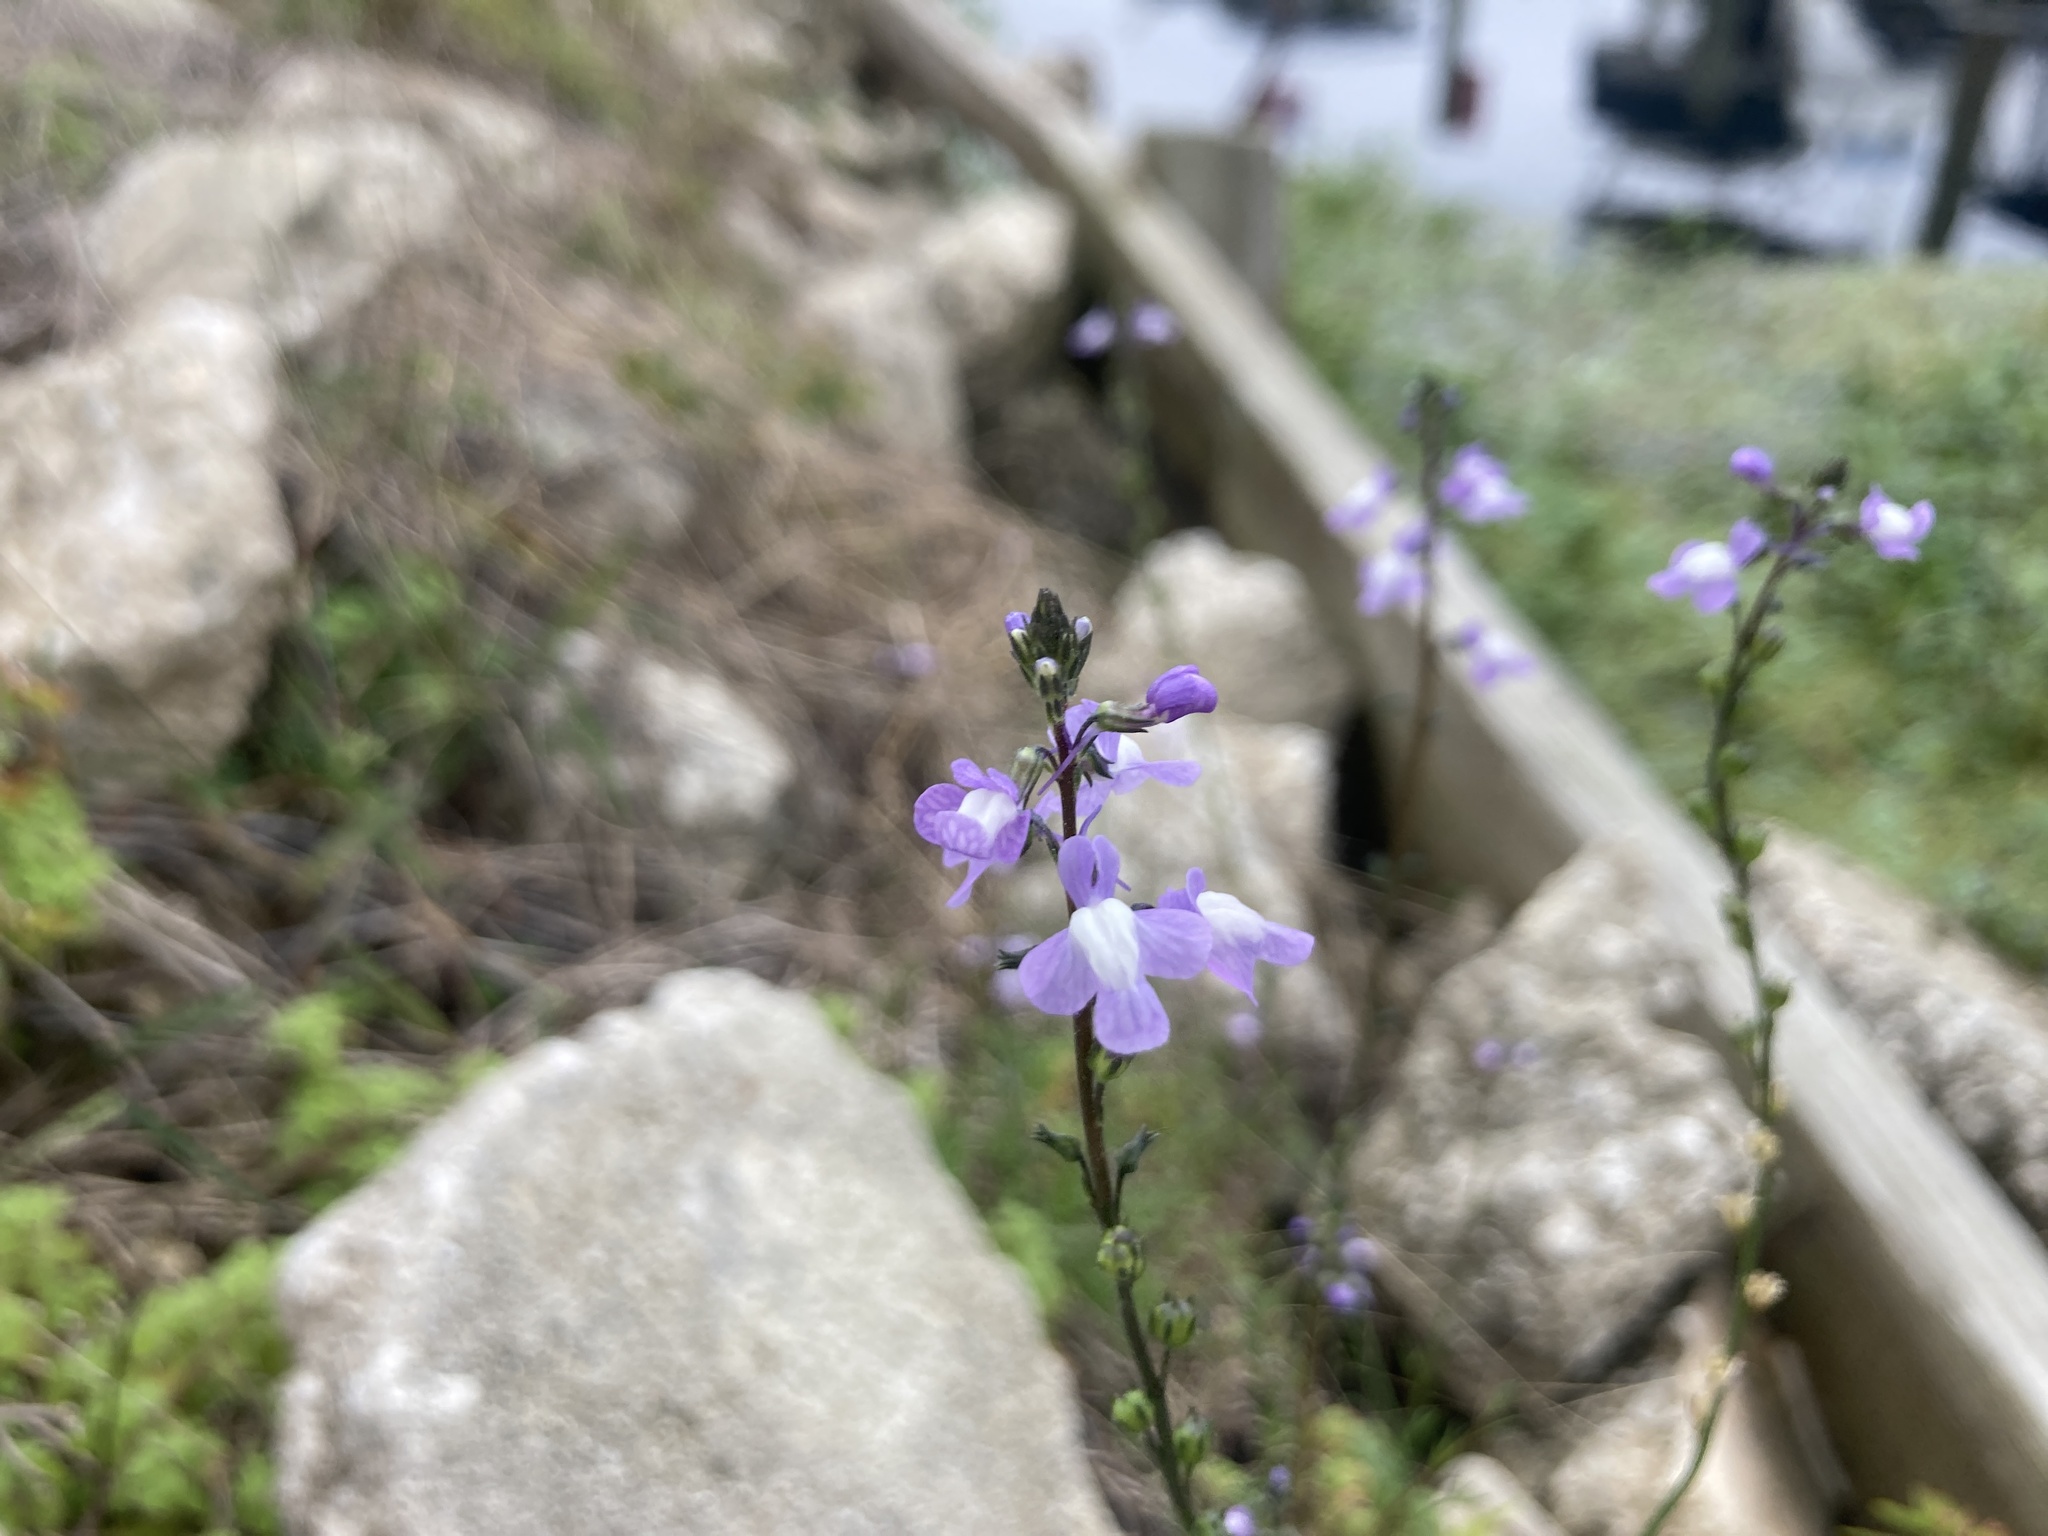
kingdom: Plantae
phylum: Tracheophyta
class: Magnoliopsida
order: Lamiales
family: Plantaginaceae
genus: Nuttallanthus
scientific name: Nuttallanthus canadensis
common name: Blue toadflax
